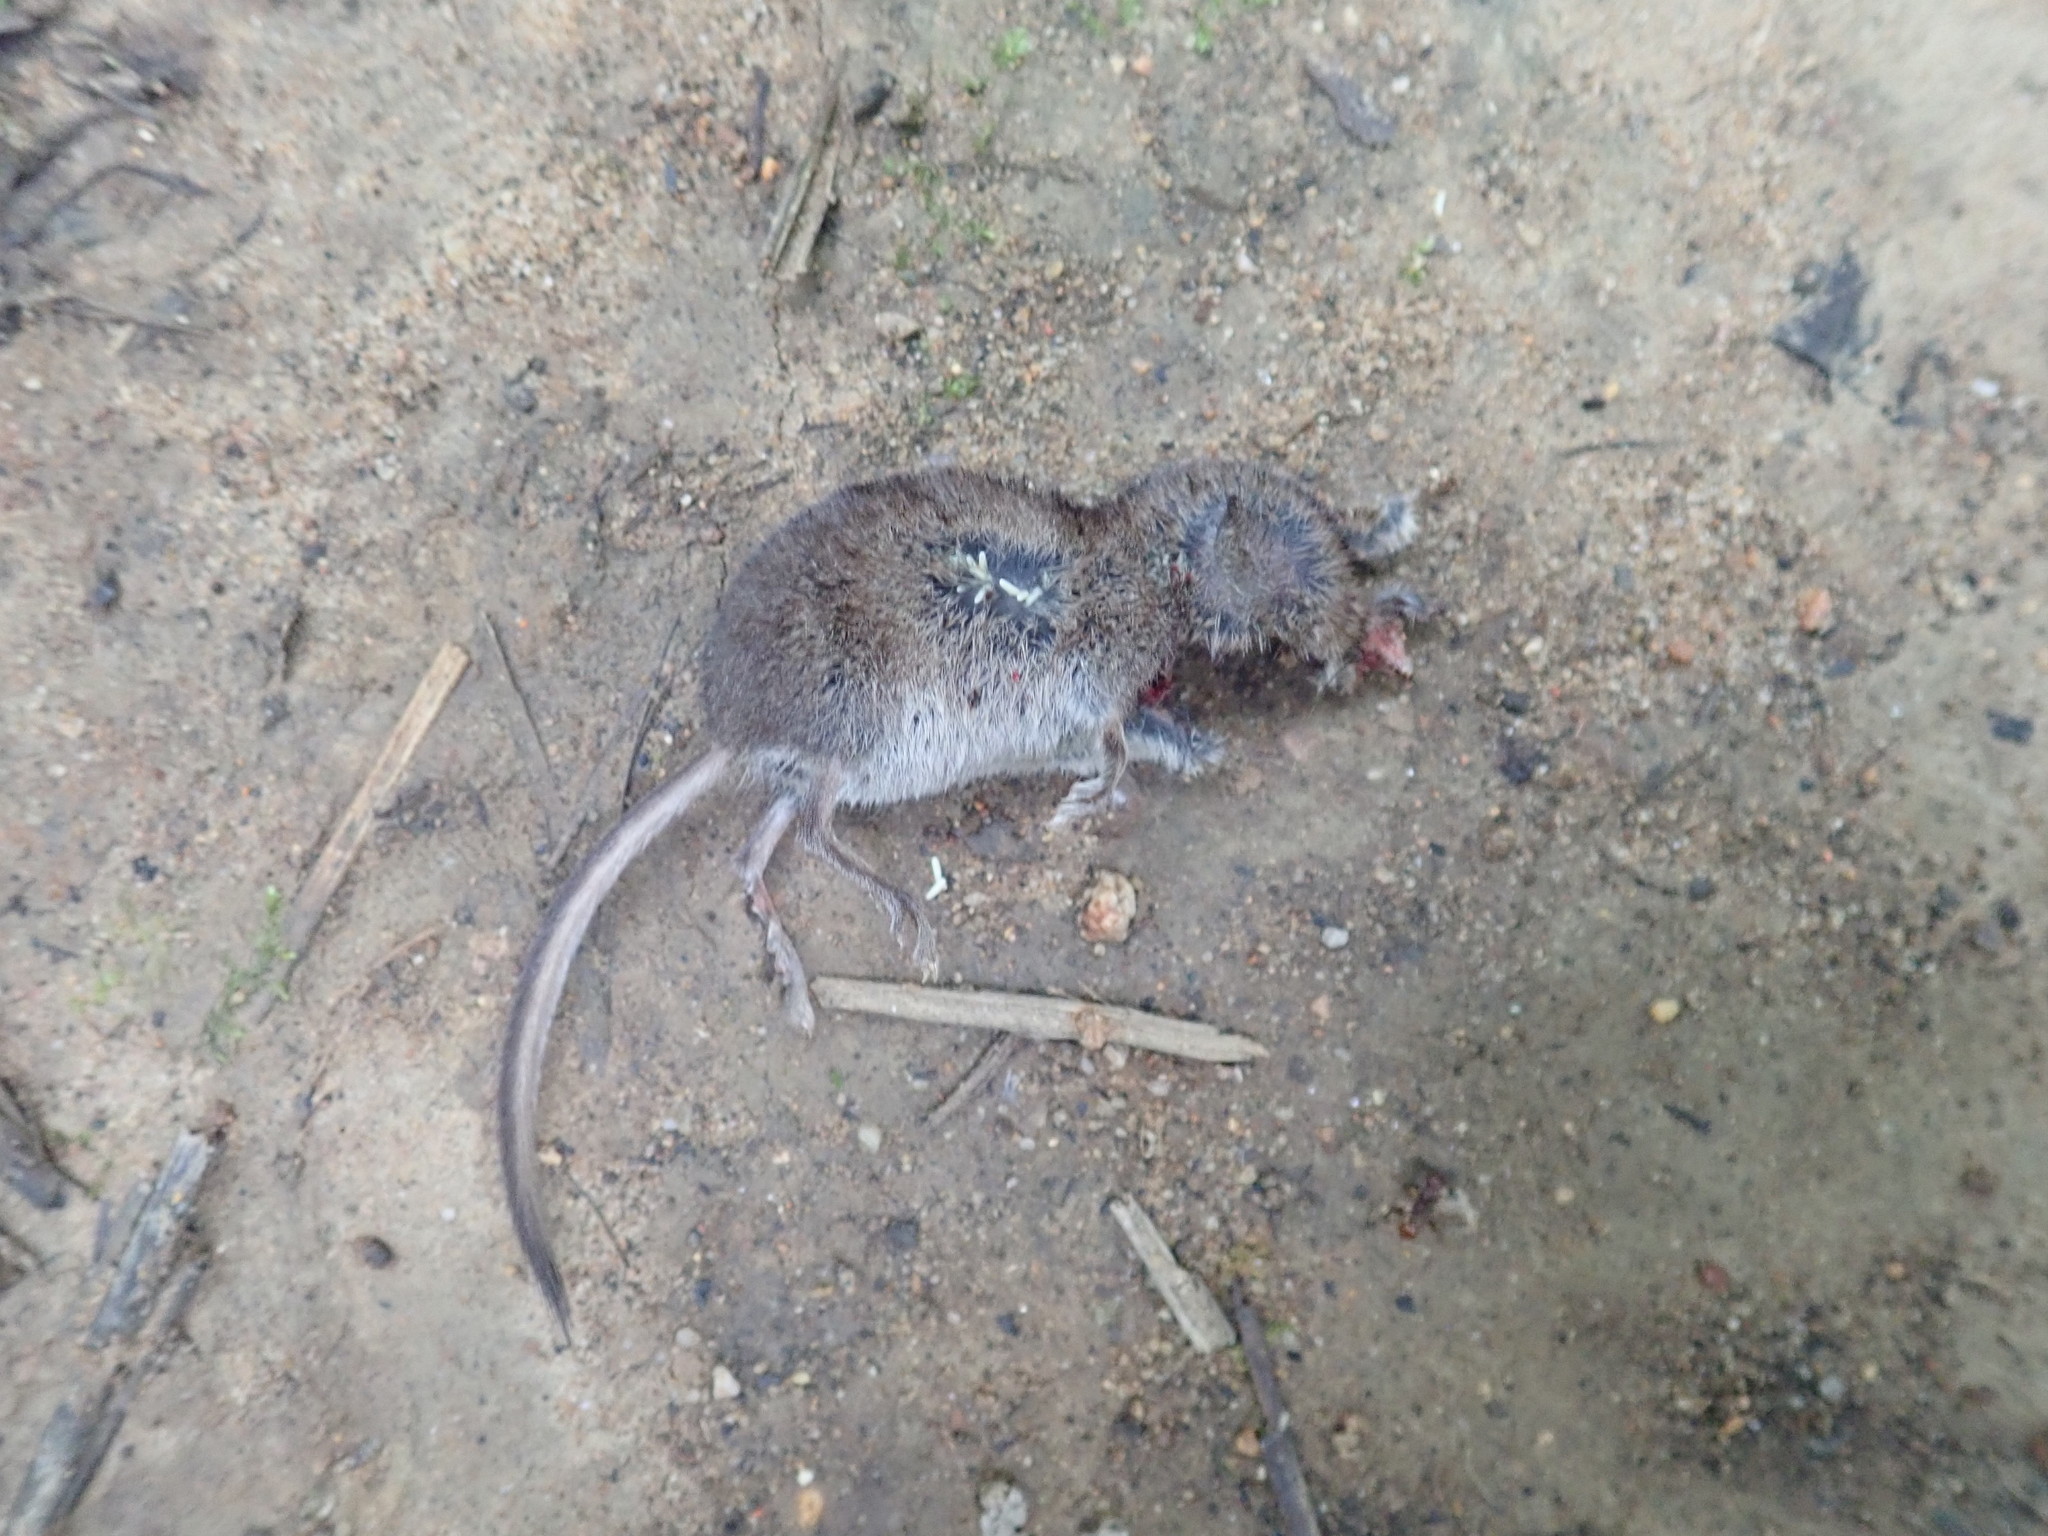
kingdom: Animalia
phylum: Chordata
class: Mammalia
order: Soricomorpha
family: Soricidae
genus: Sorex
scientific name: Sorex cinereus
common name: Cinereus shrew
